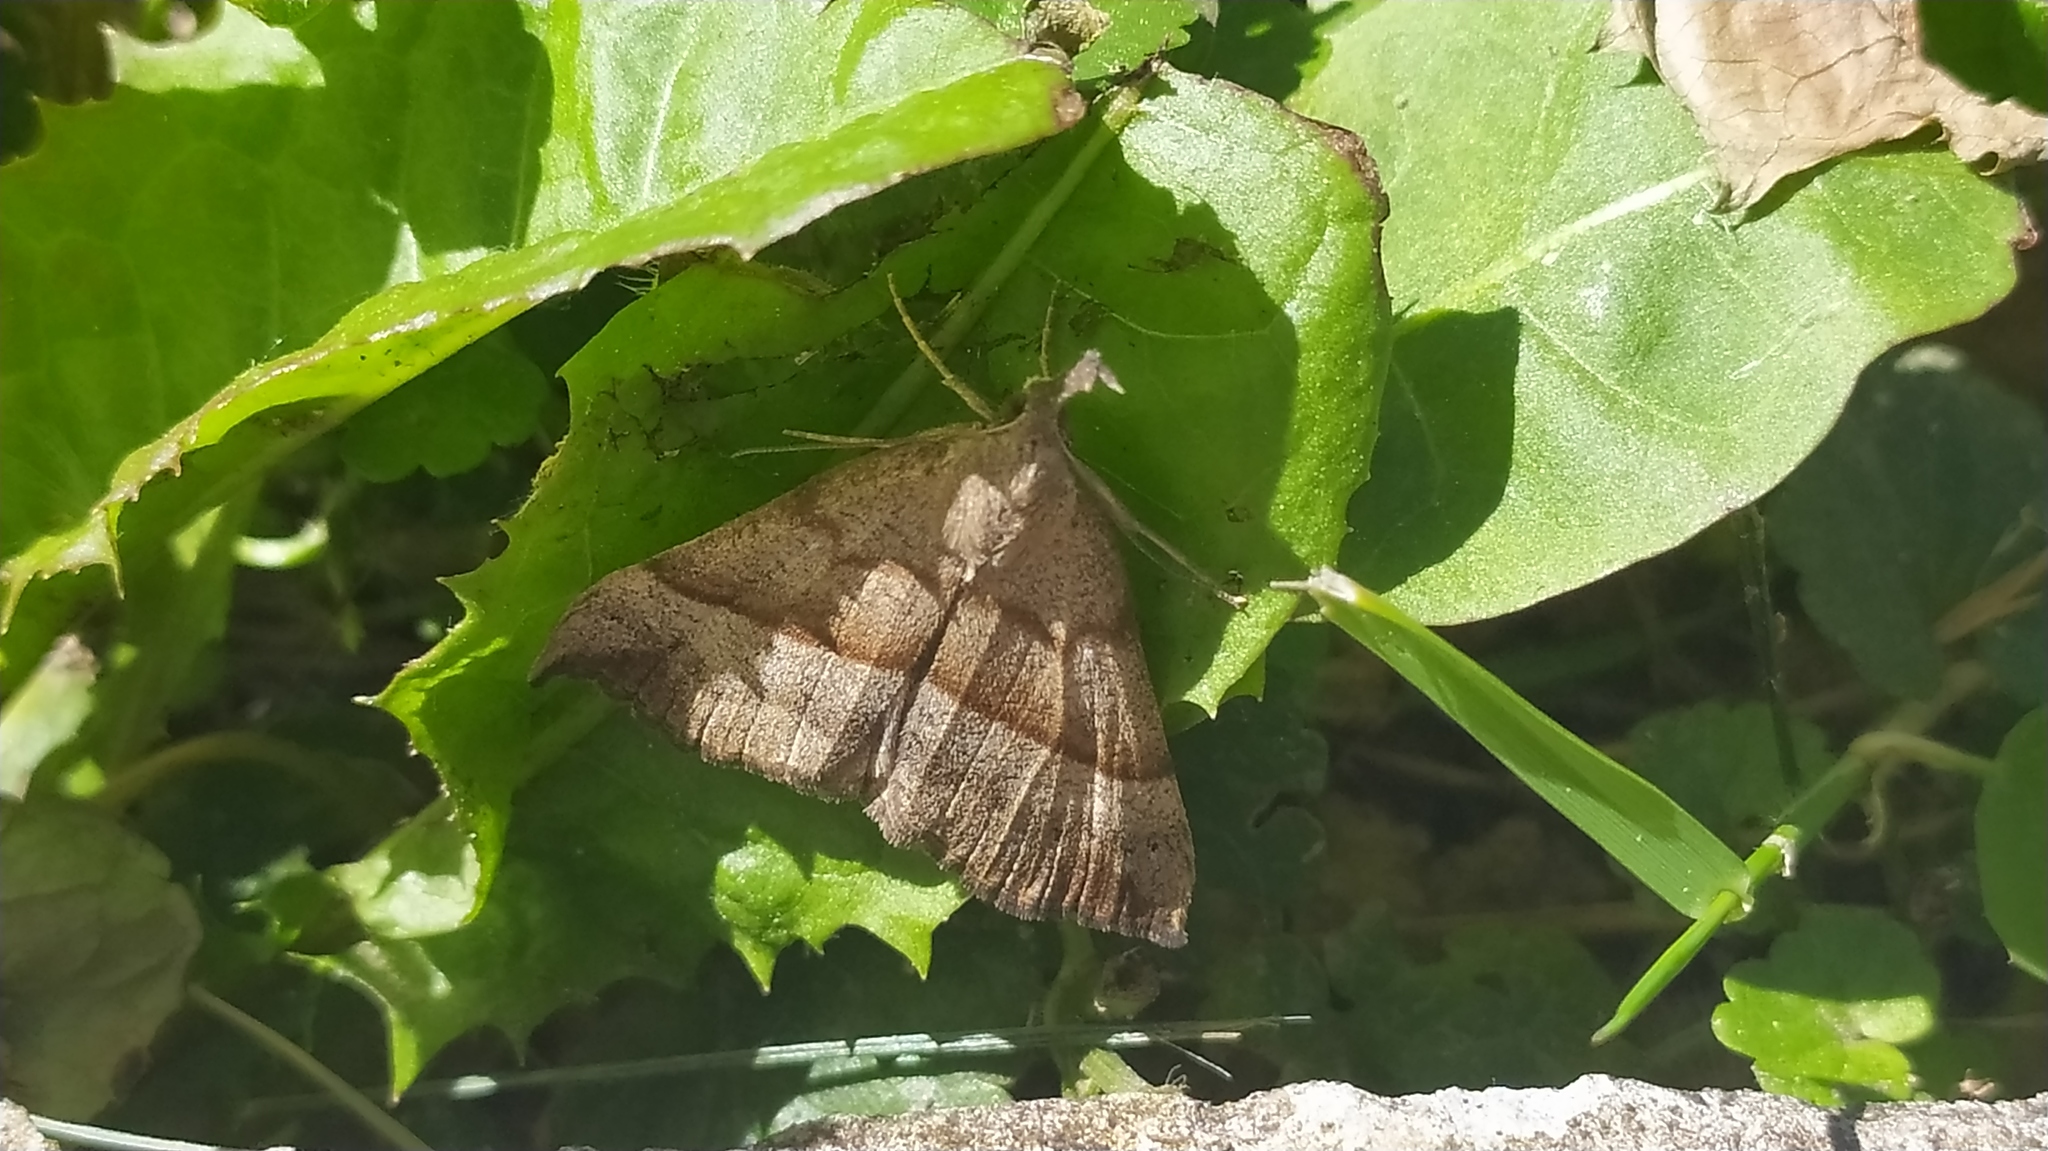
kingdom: Animalia
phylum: Arthropoda
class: Insecta
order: Lepidoptera
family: Erebidae
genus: Hypena
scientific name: Hypena proboscidalis
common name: Snout
